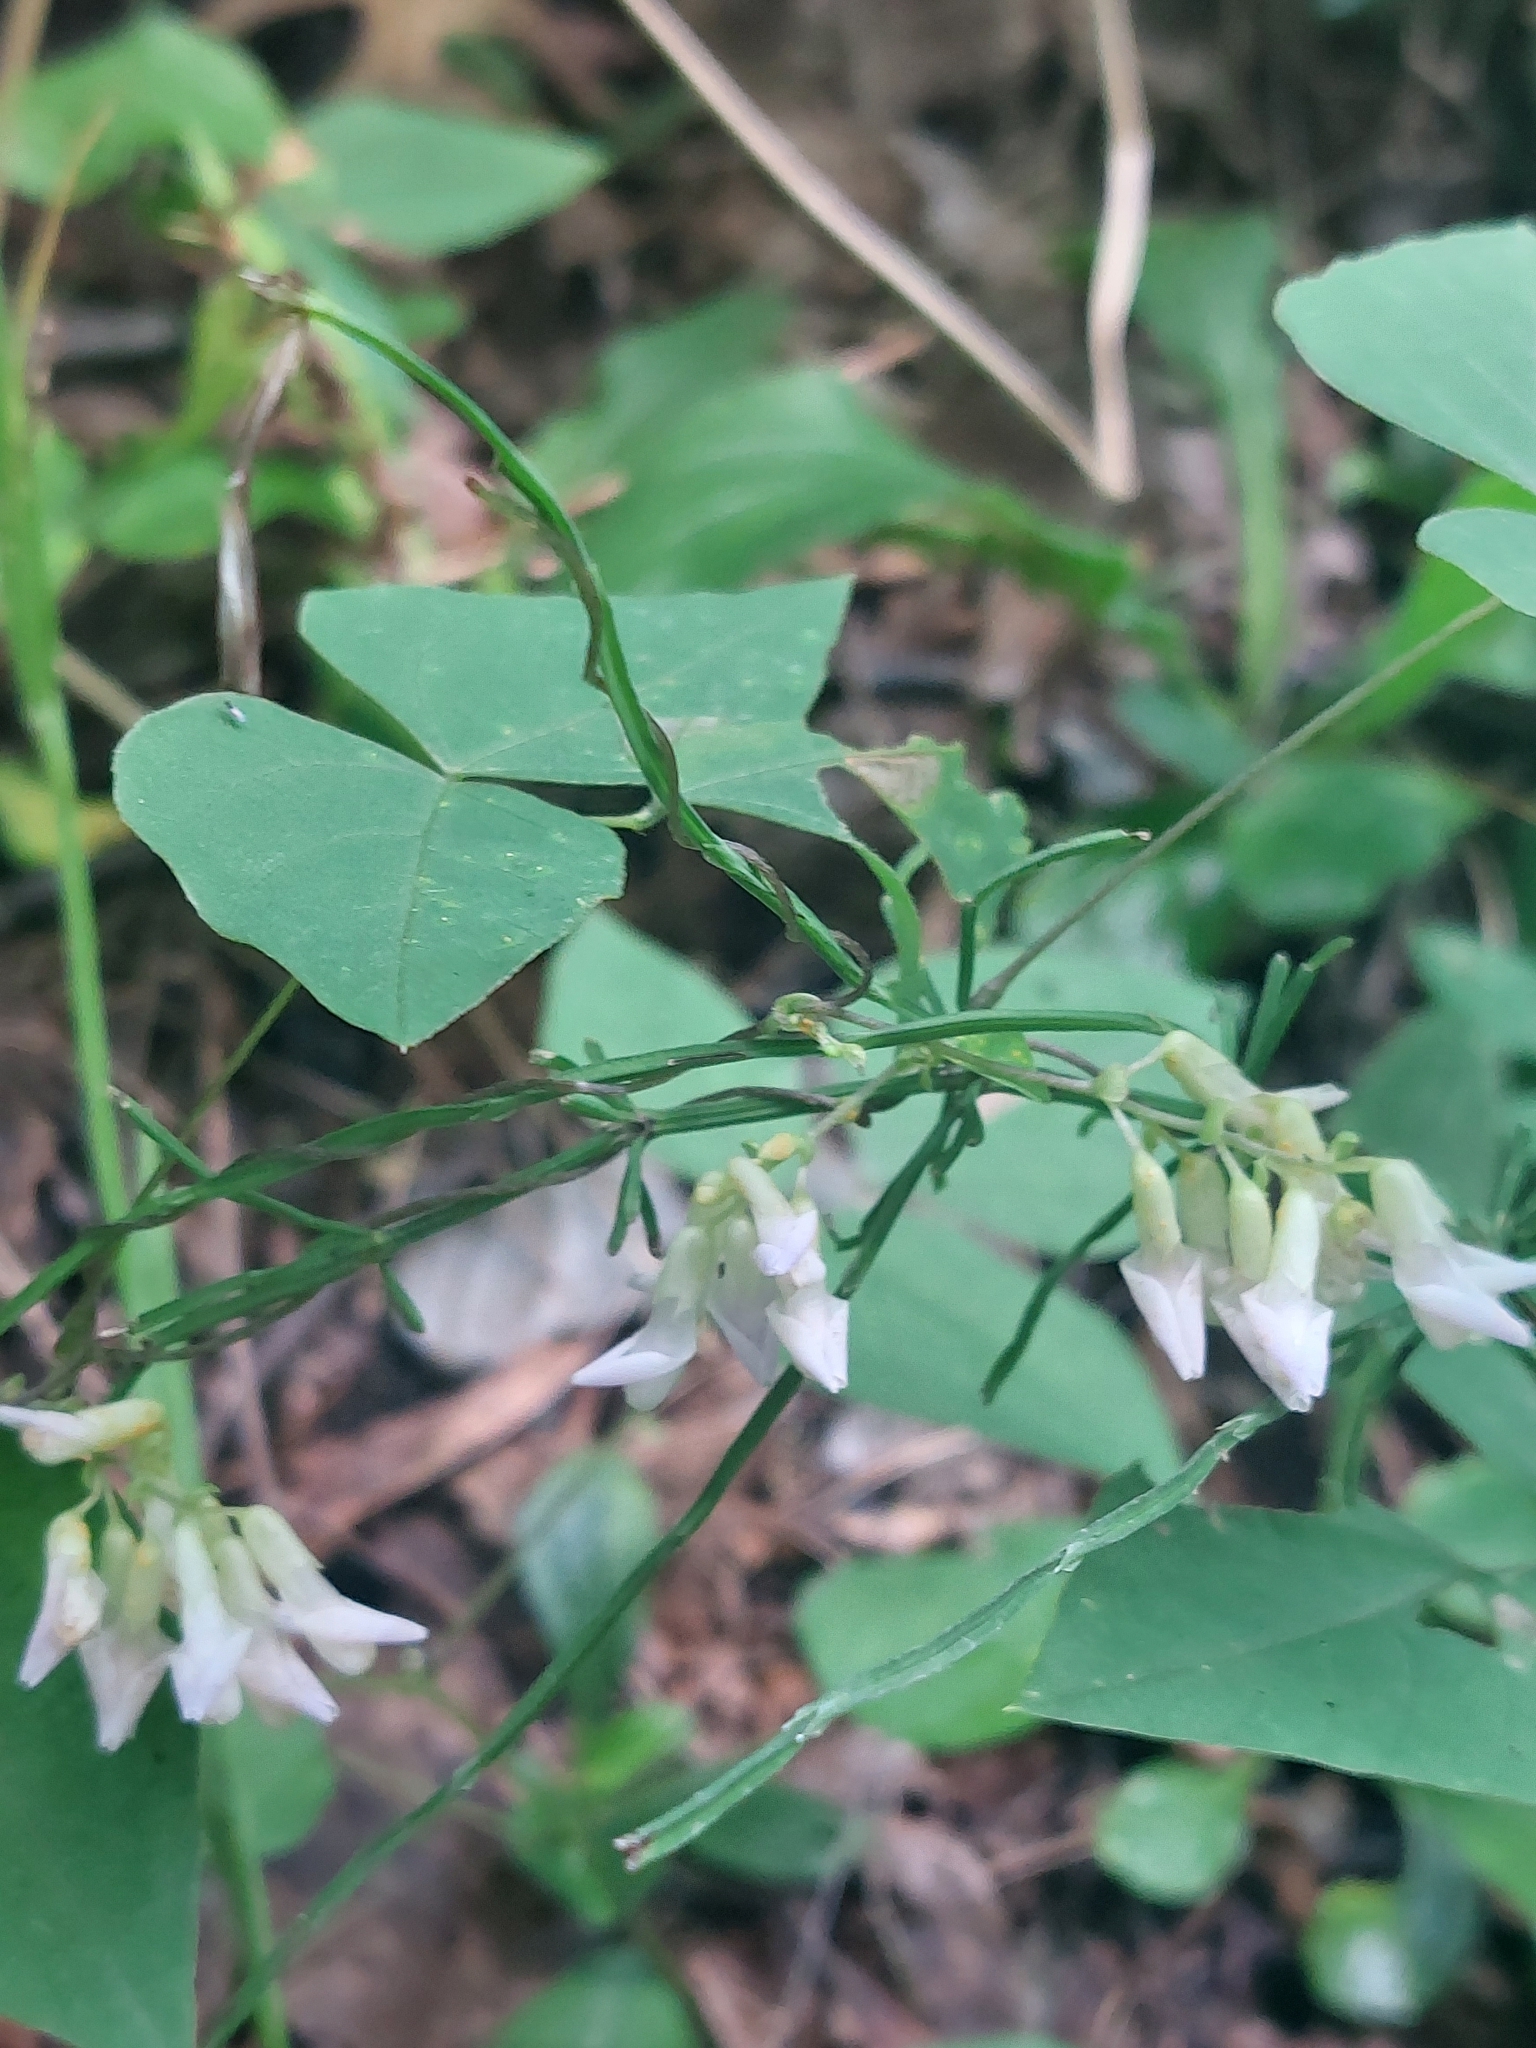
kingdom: Plantae
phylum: Tracheophyta
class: Magnoliopsida
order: Fabales
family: Fabaceae
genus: Amphicarpaea
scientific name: Amphicarpaea bracteata
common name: American hog peanut
